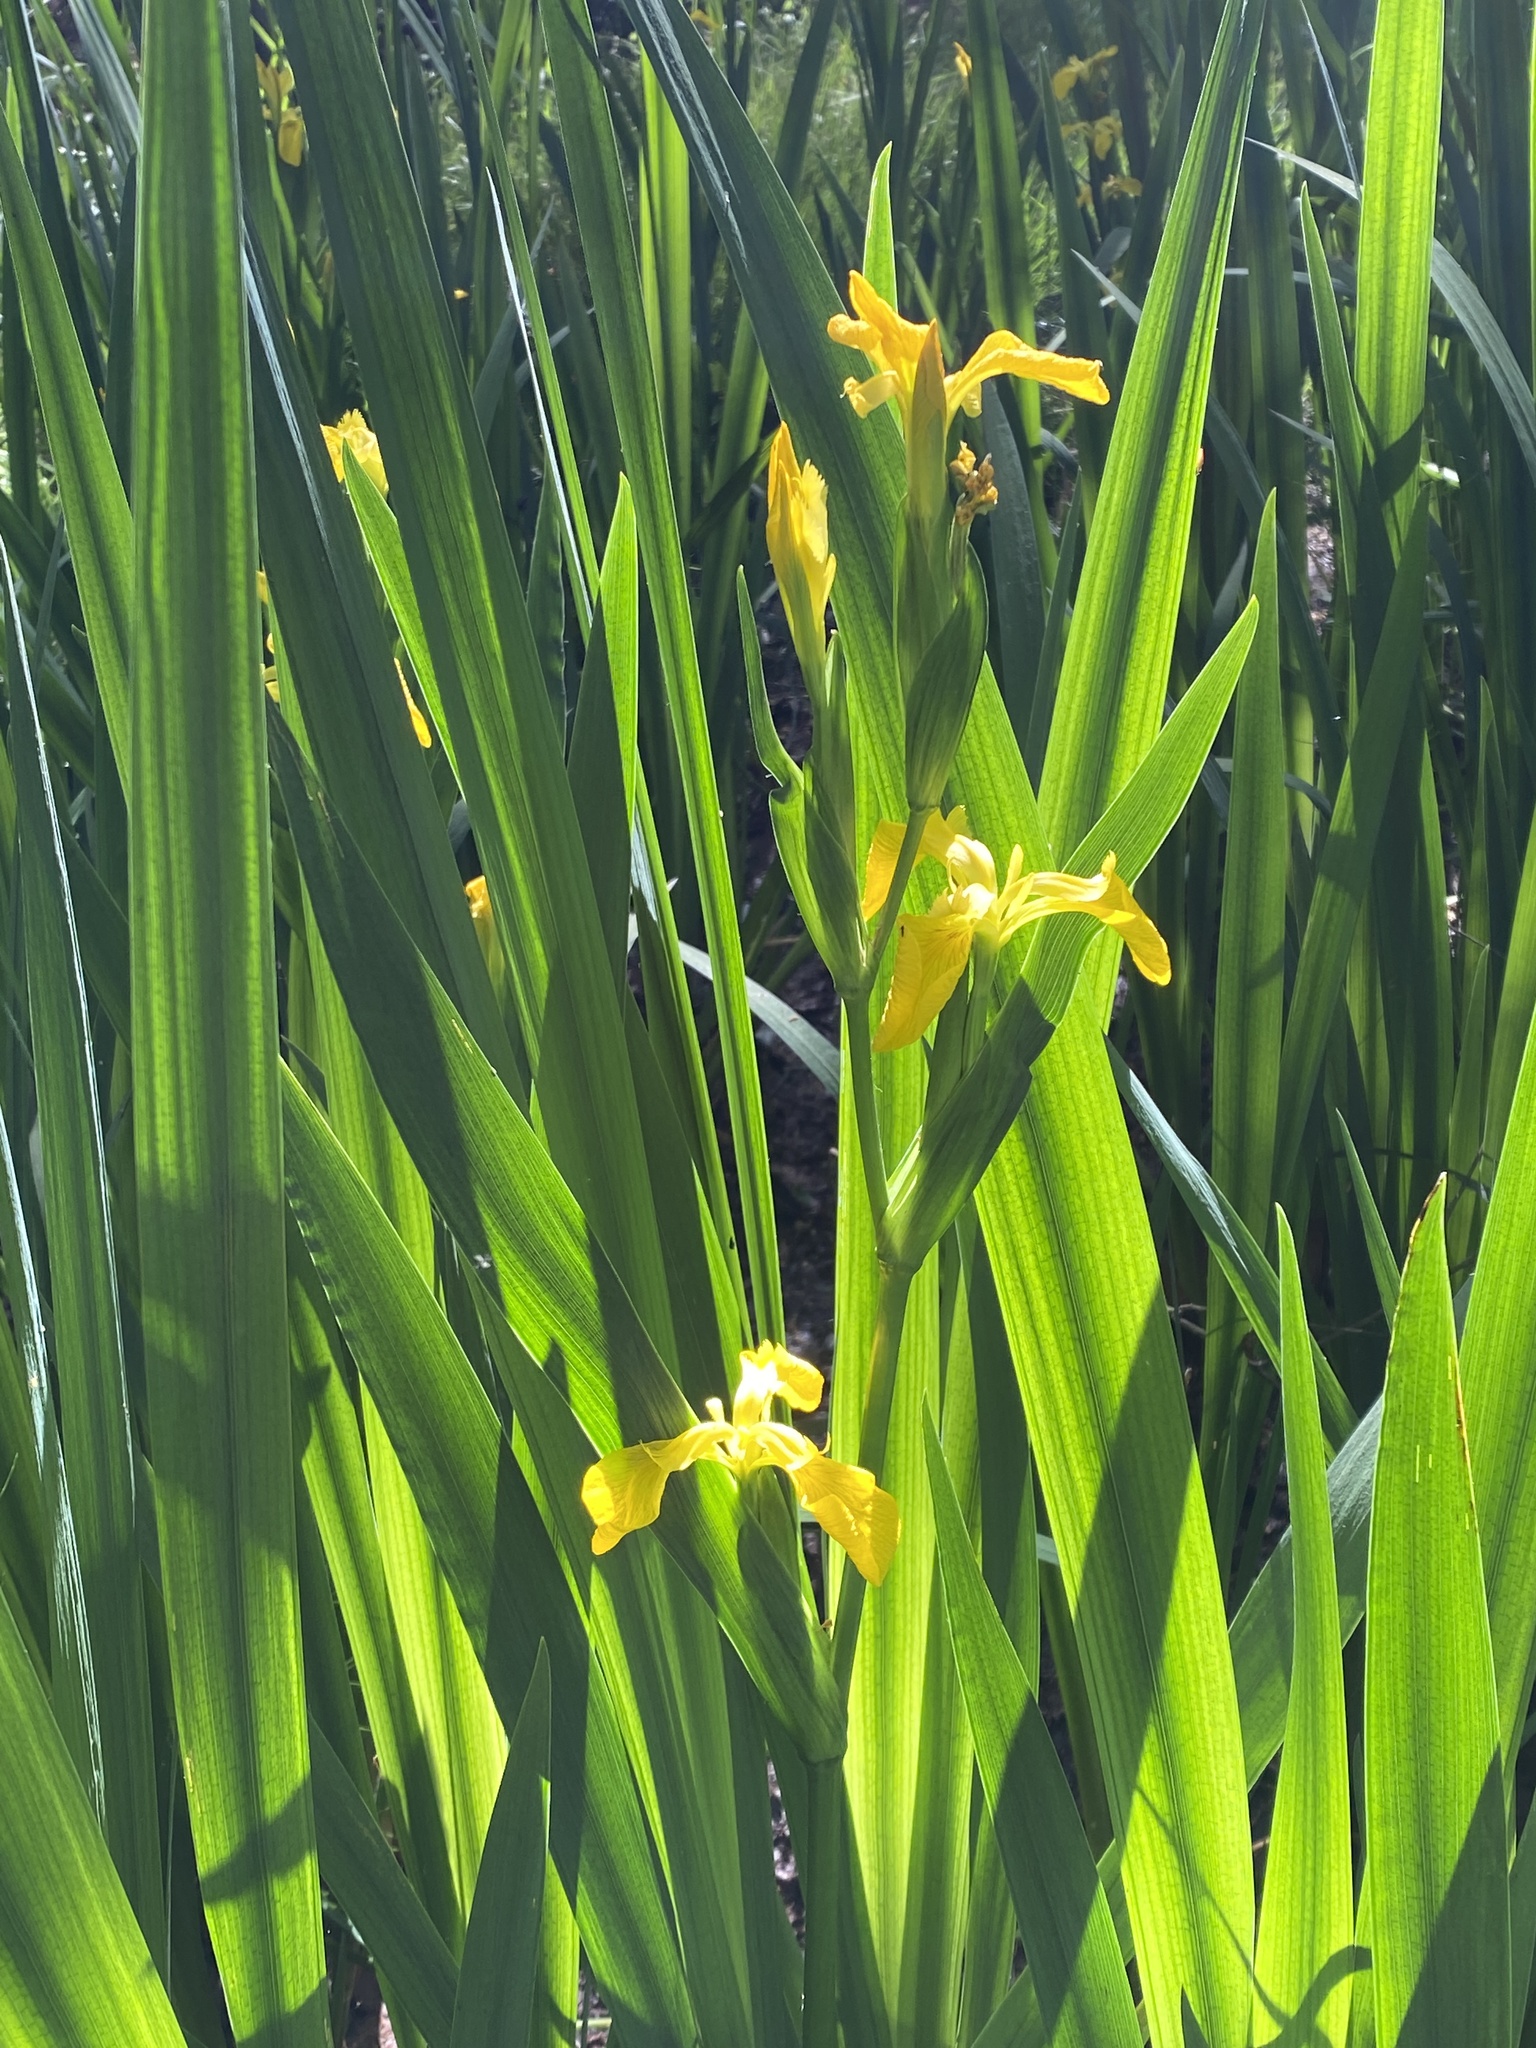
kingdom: Plantae
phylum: Tracheophyta
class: Liliopsida
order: Asparagales
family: Iridaceae
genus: Iris
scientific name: Iris pseudacorus
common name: Yellow flag
